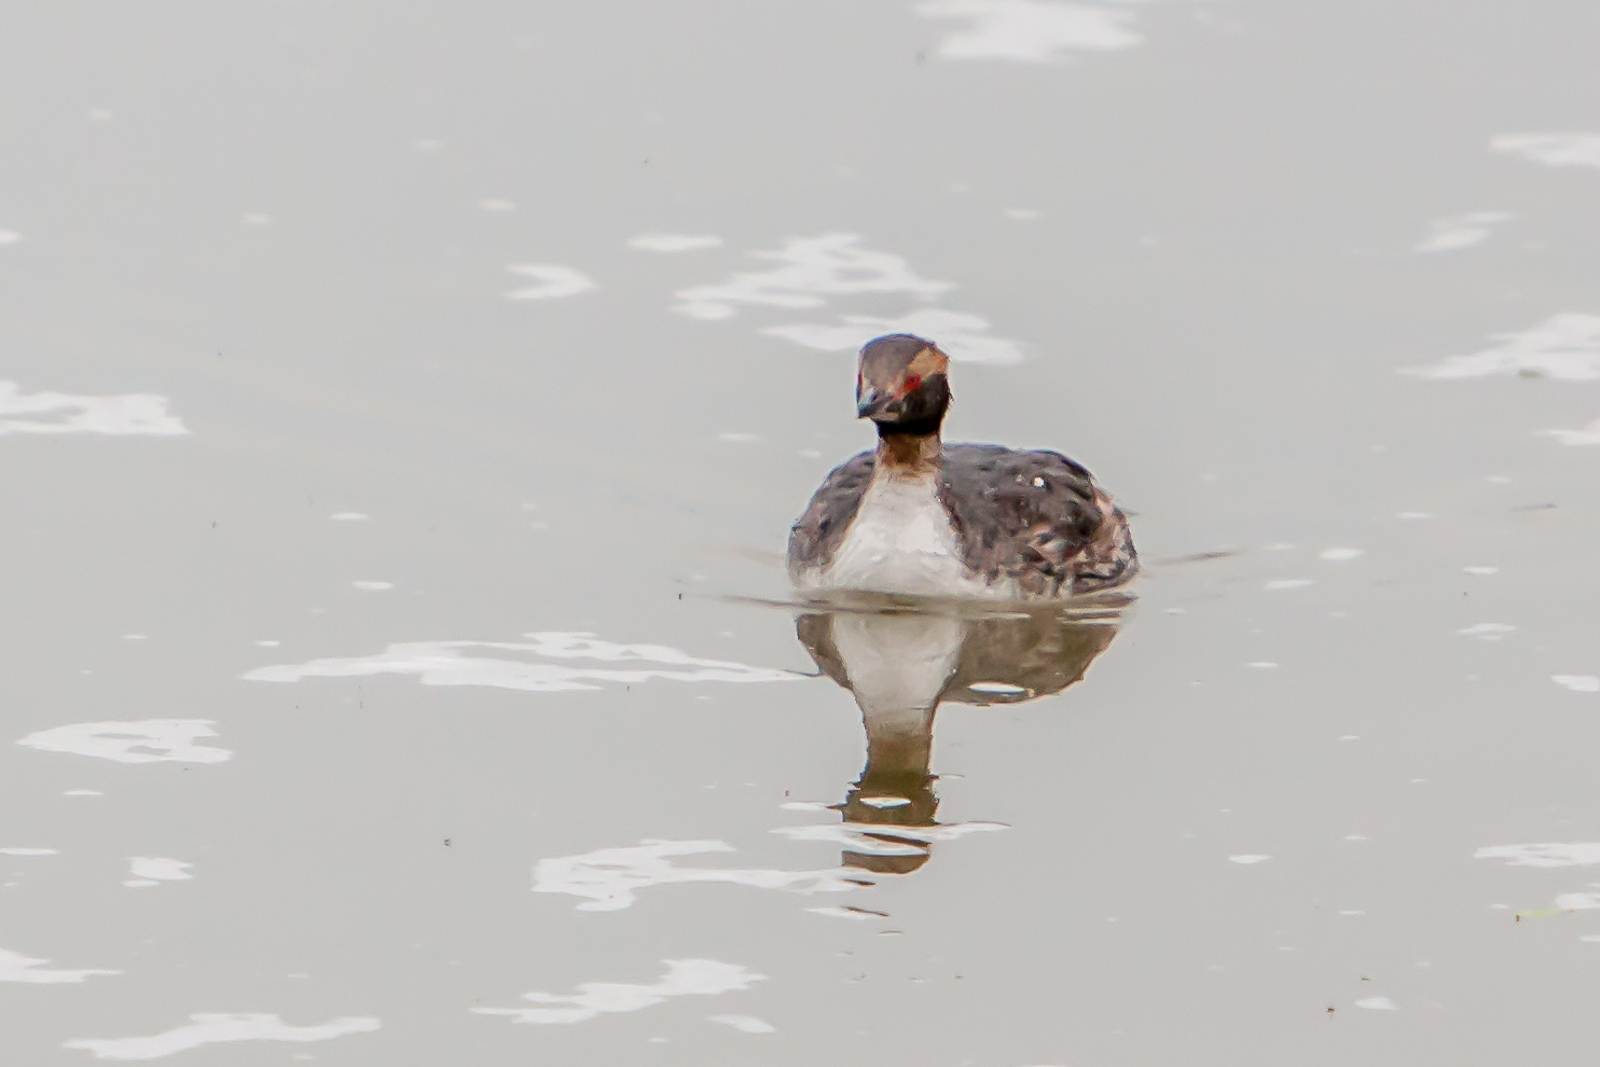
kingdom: Animalia
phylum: Chordata
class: Aves
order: Podicipediformes
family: Podicipedidae
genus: Podiceps
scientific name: Podiceps auritus
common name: Horned grebe
